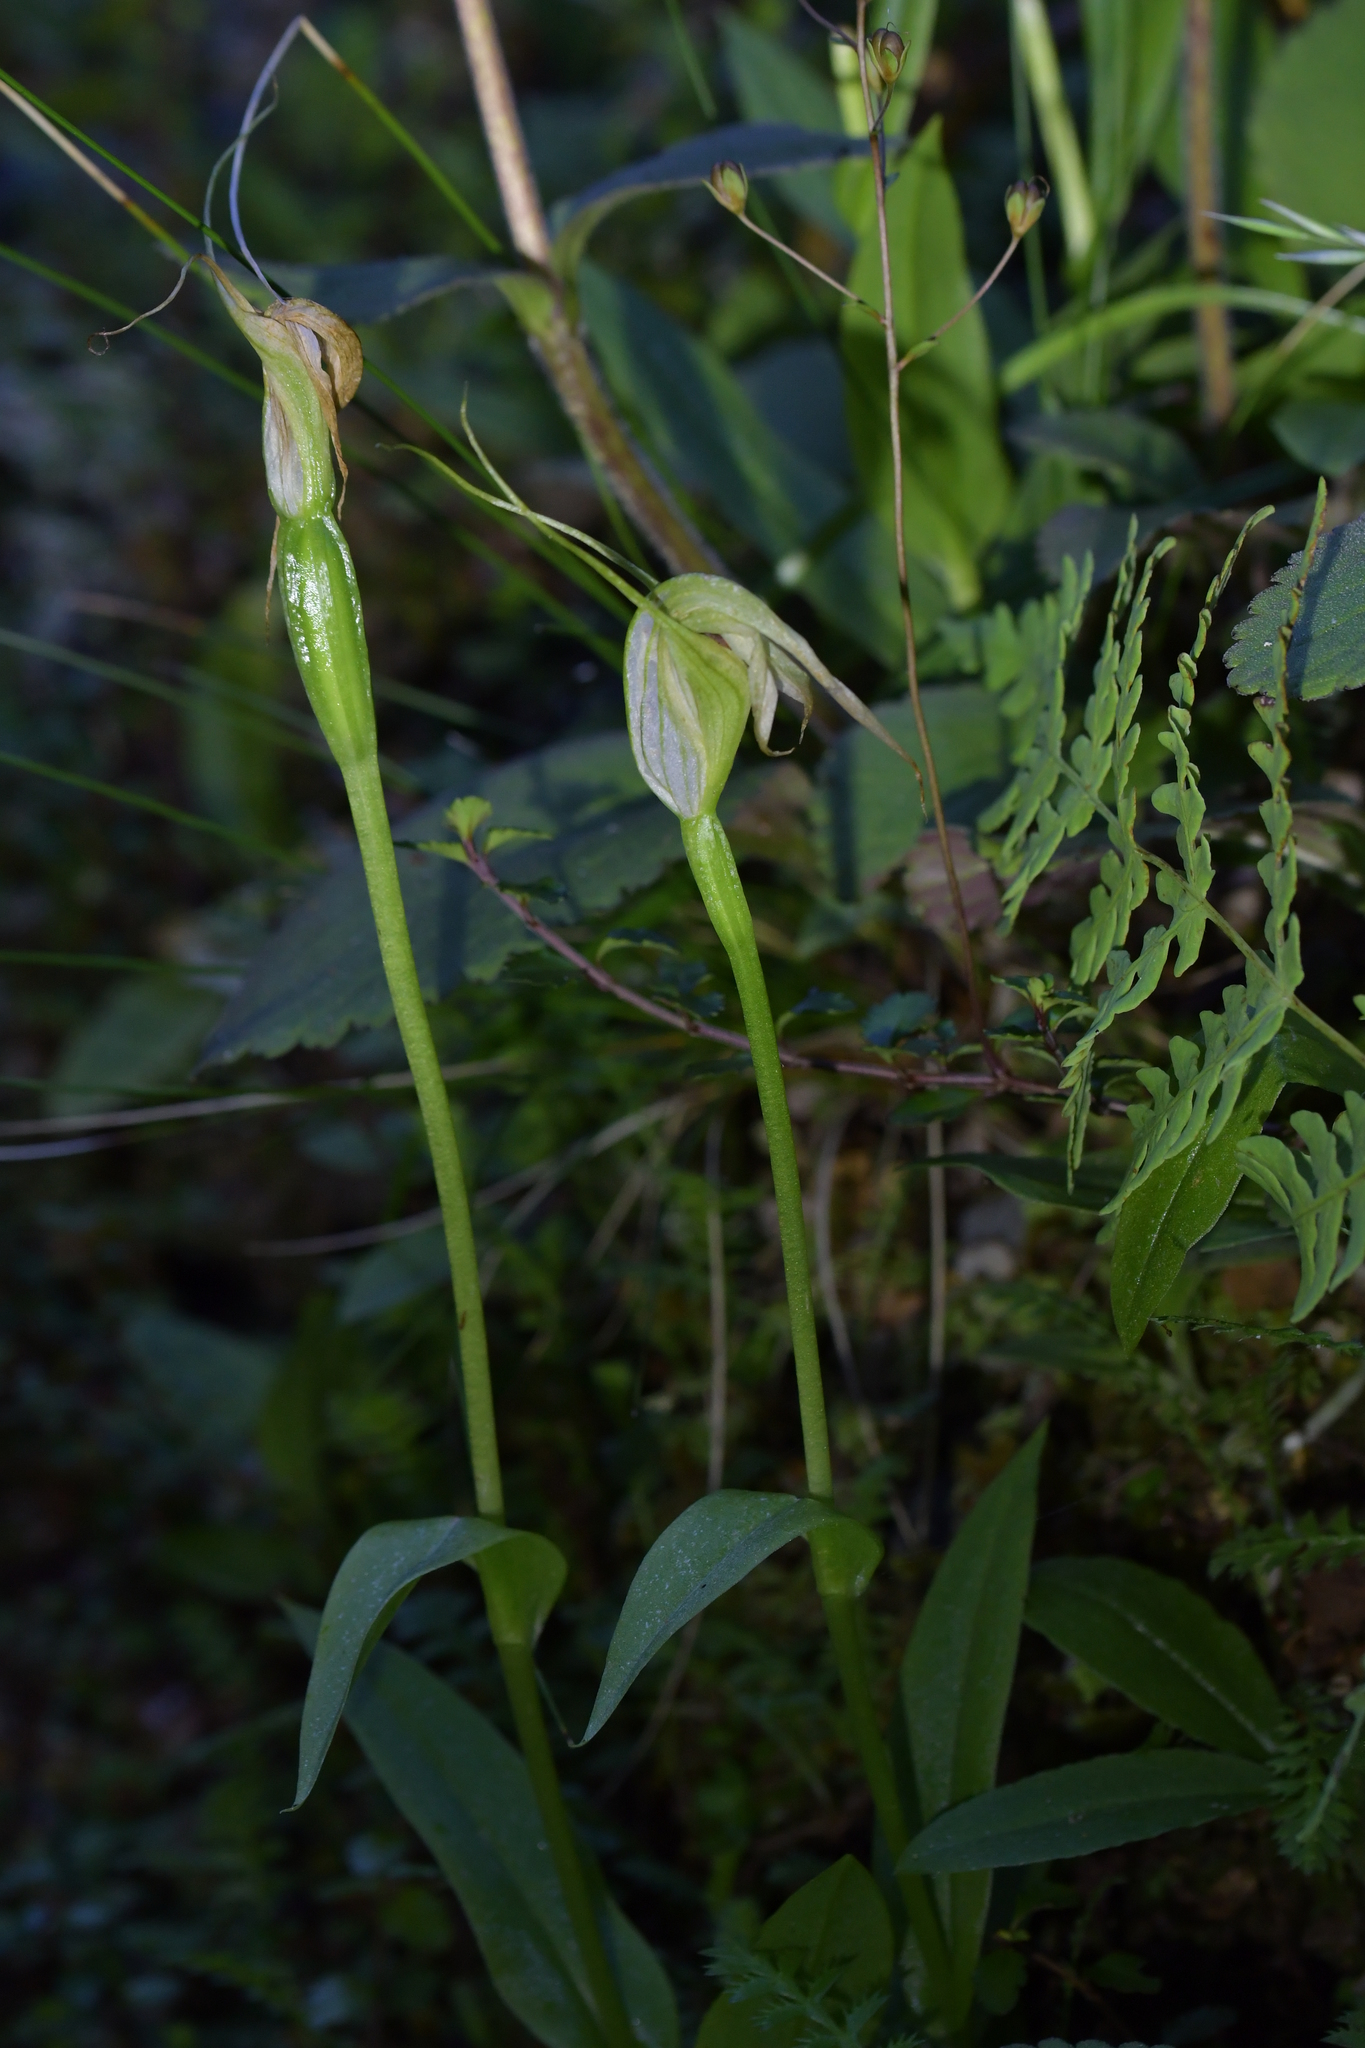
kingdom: Plantae
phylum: Tracheophyta
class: Liliopsida
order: Asparagales
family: Orchidaceae
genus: Pterostylis
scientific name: Pterostylis oliveri
